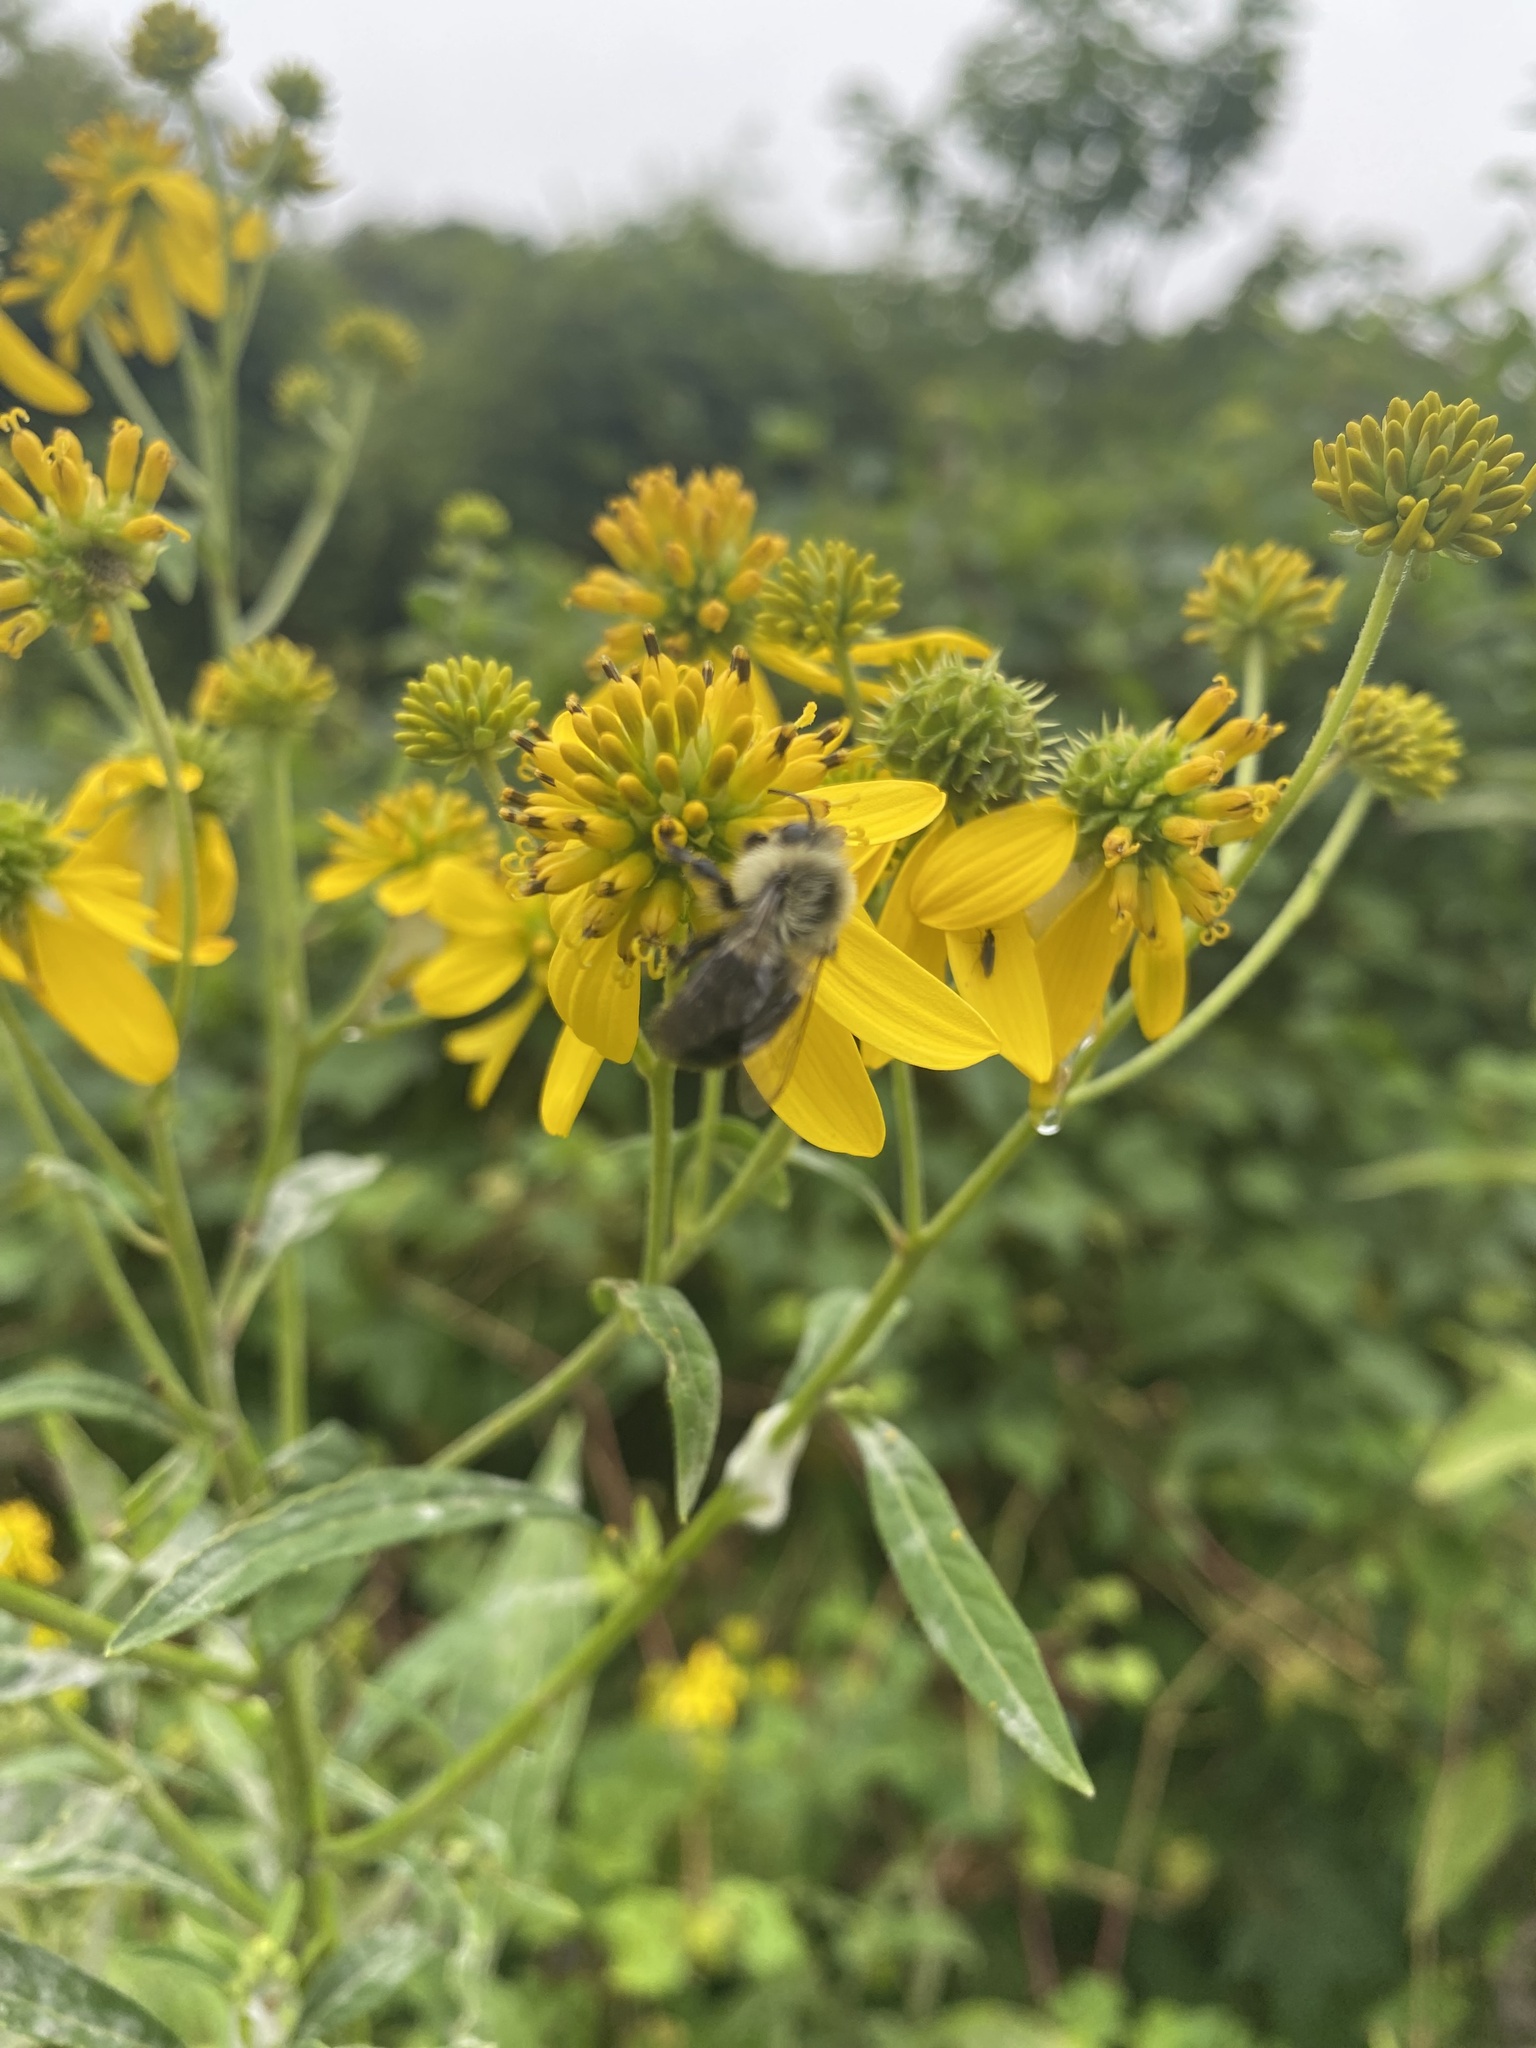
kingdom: Animalia
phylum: Arthropoda
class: Insecta
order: Hymenoptera
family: Apidae
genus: Bombus
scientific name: Bombus impatiens
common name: Common eastern bumble bee
